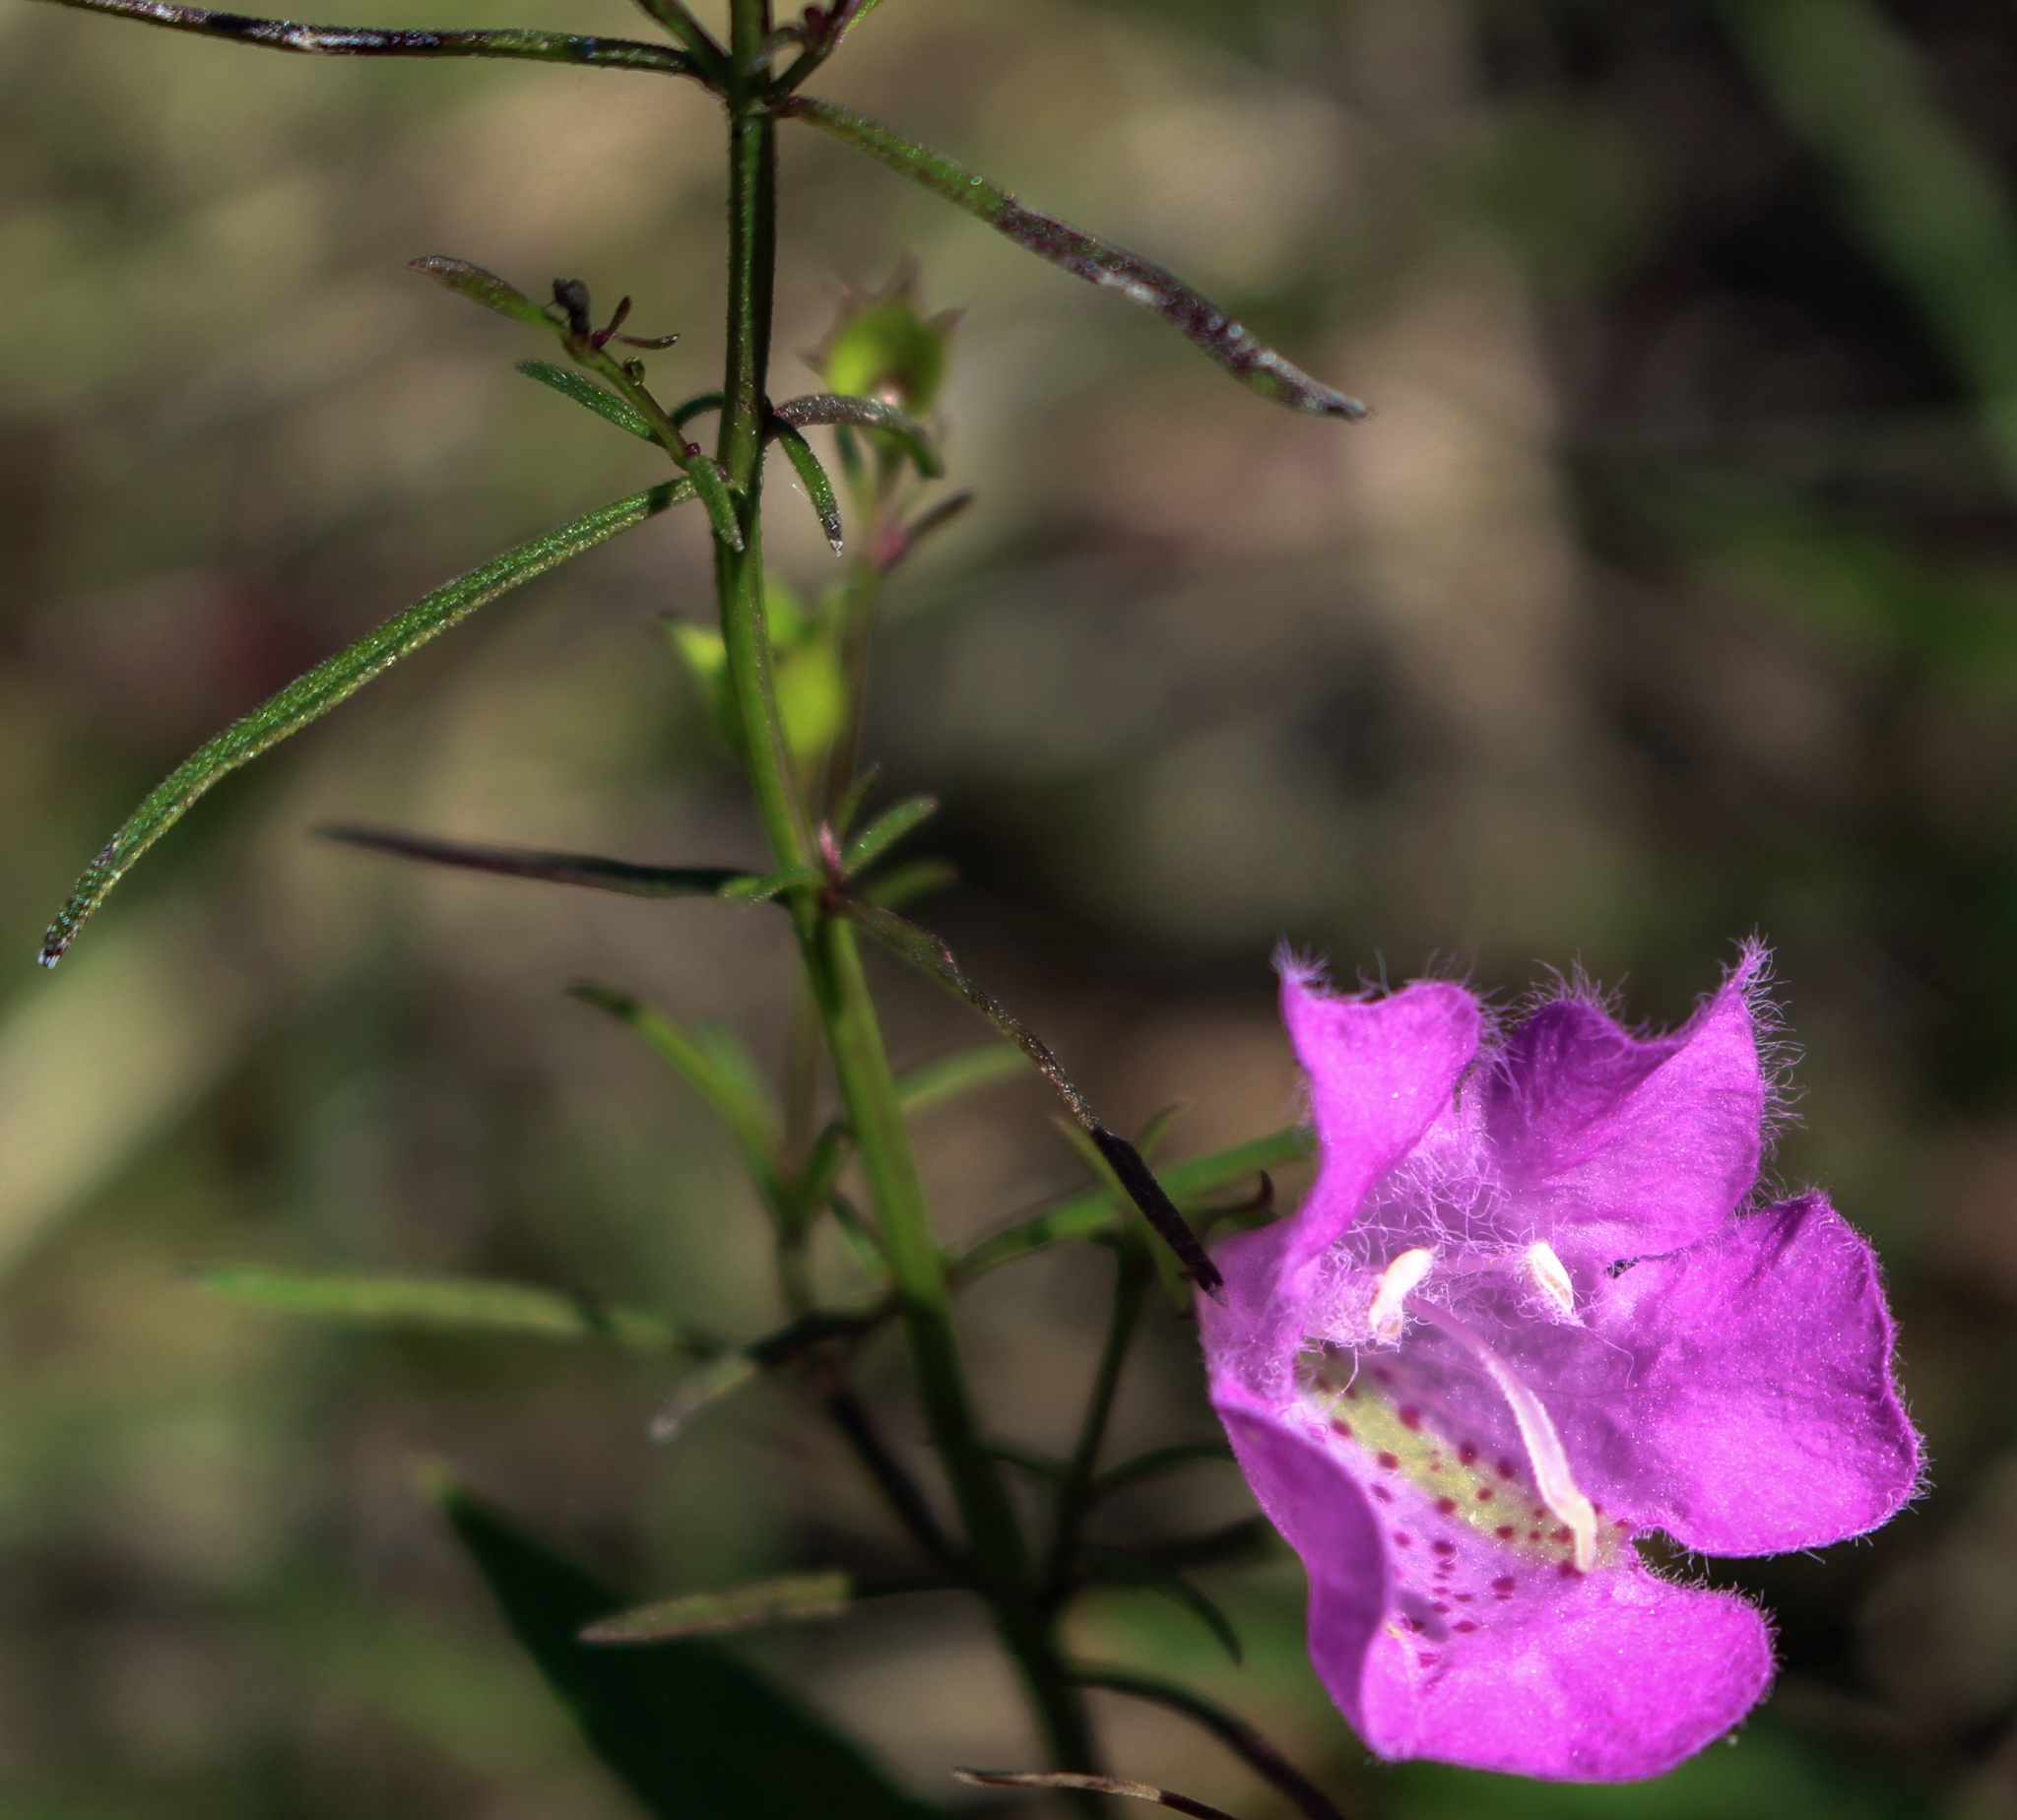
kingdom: Plantae
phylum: Tracheophyta
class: Magnoliopsida
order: Lamiales
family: Orobanchaceae
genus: Agalinis
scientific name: Agalinis purpurea
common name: Purple false foxglove
